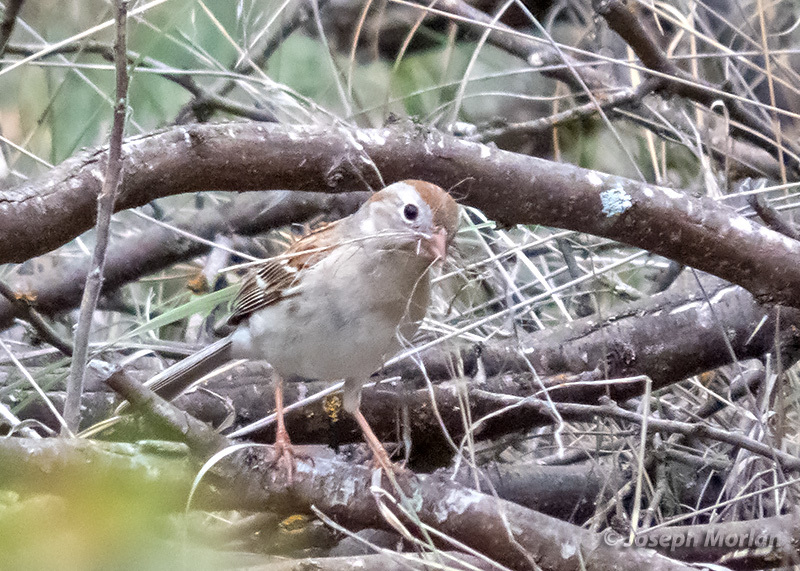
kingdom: Animalia
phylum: Chordata
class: Aves
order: Passeriformes
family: Passerellidae
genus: Spizella
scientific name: Spizella pusilla
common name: Field sparrow
